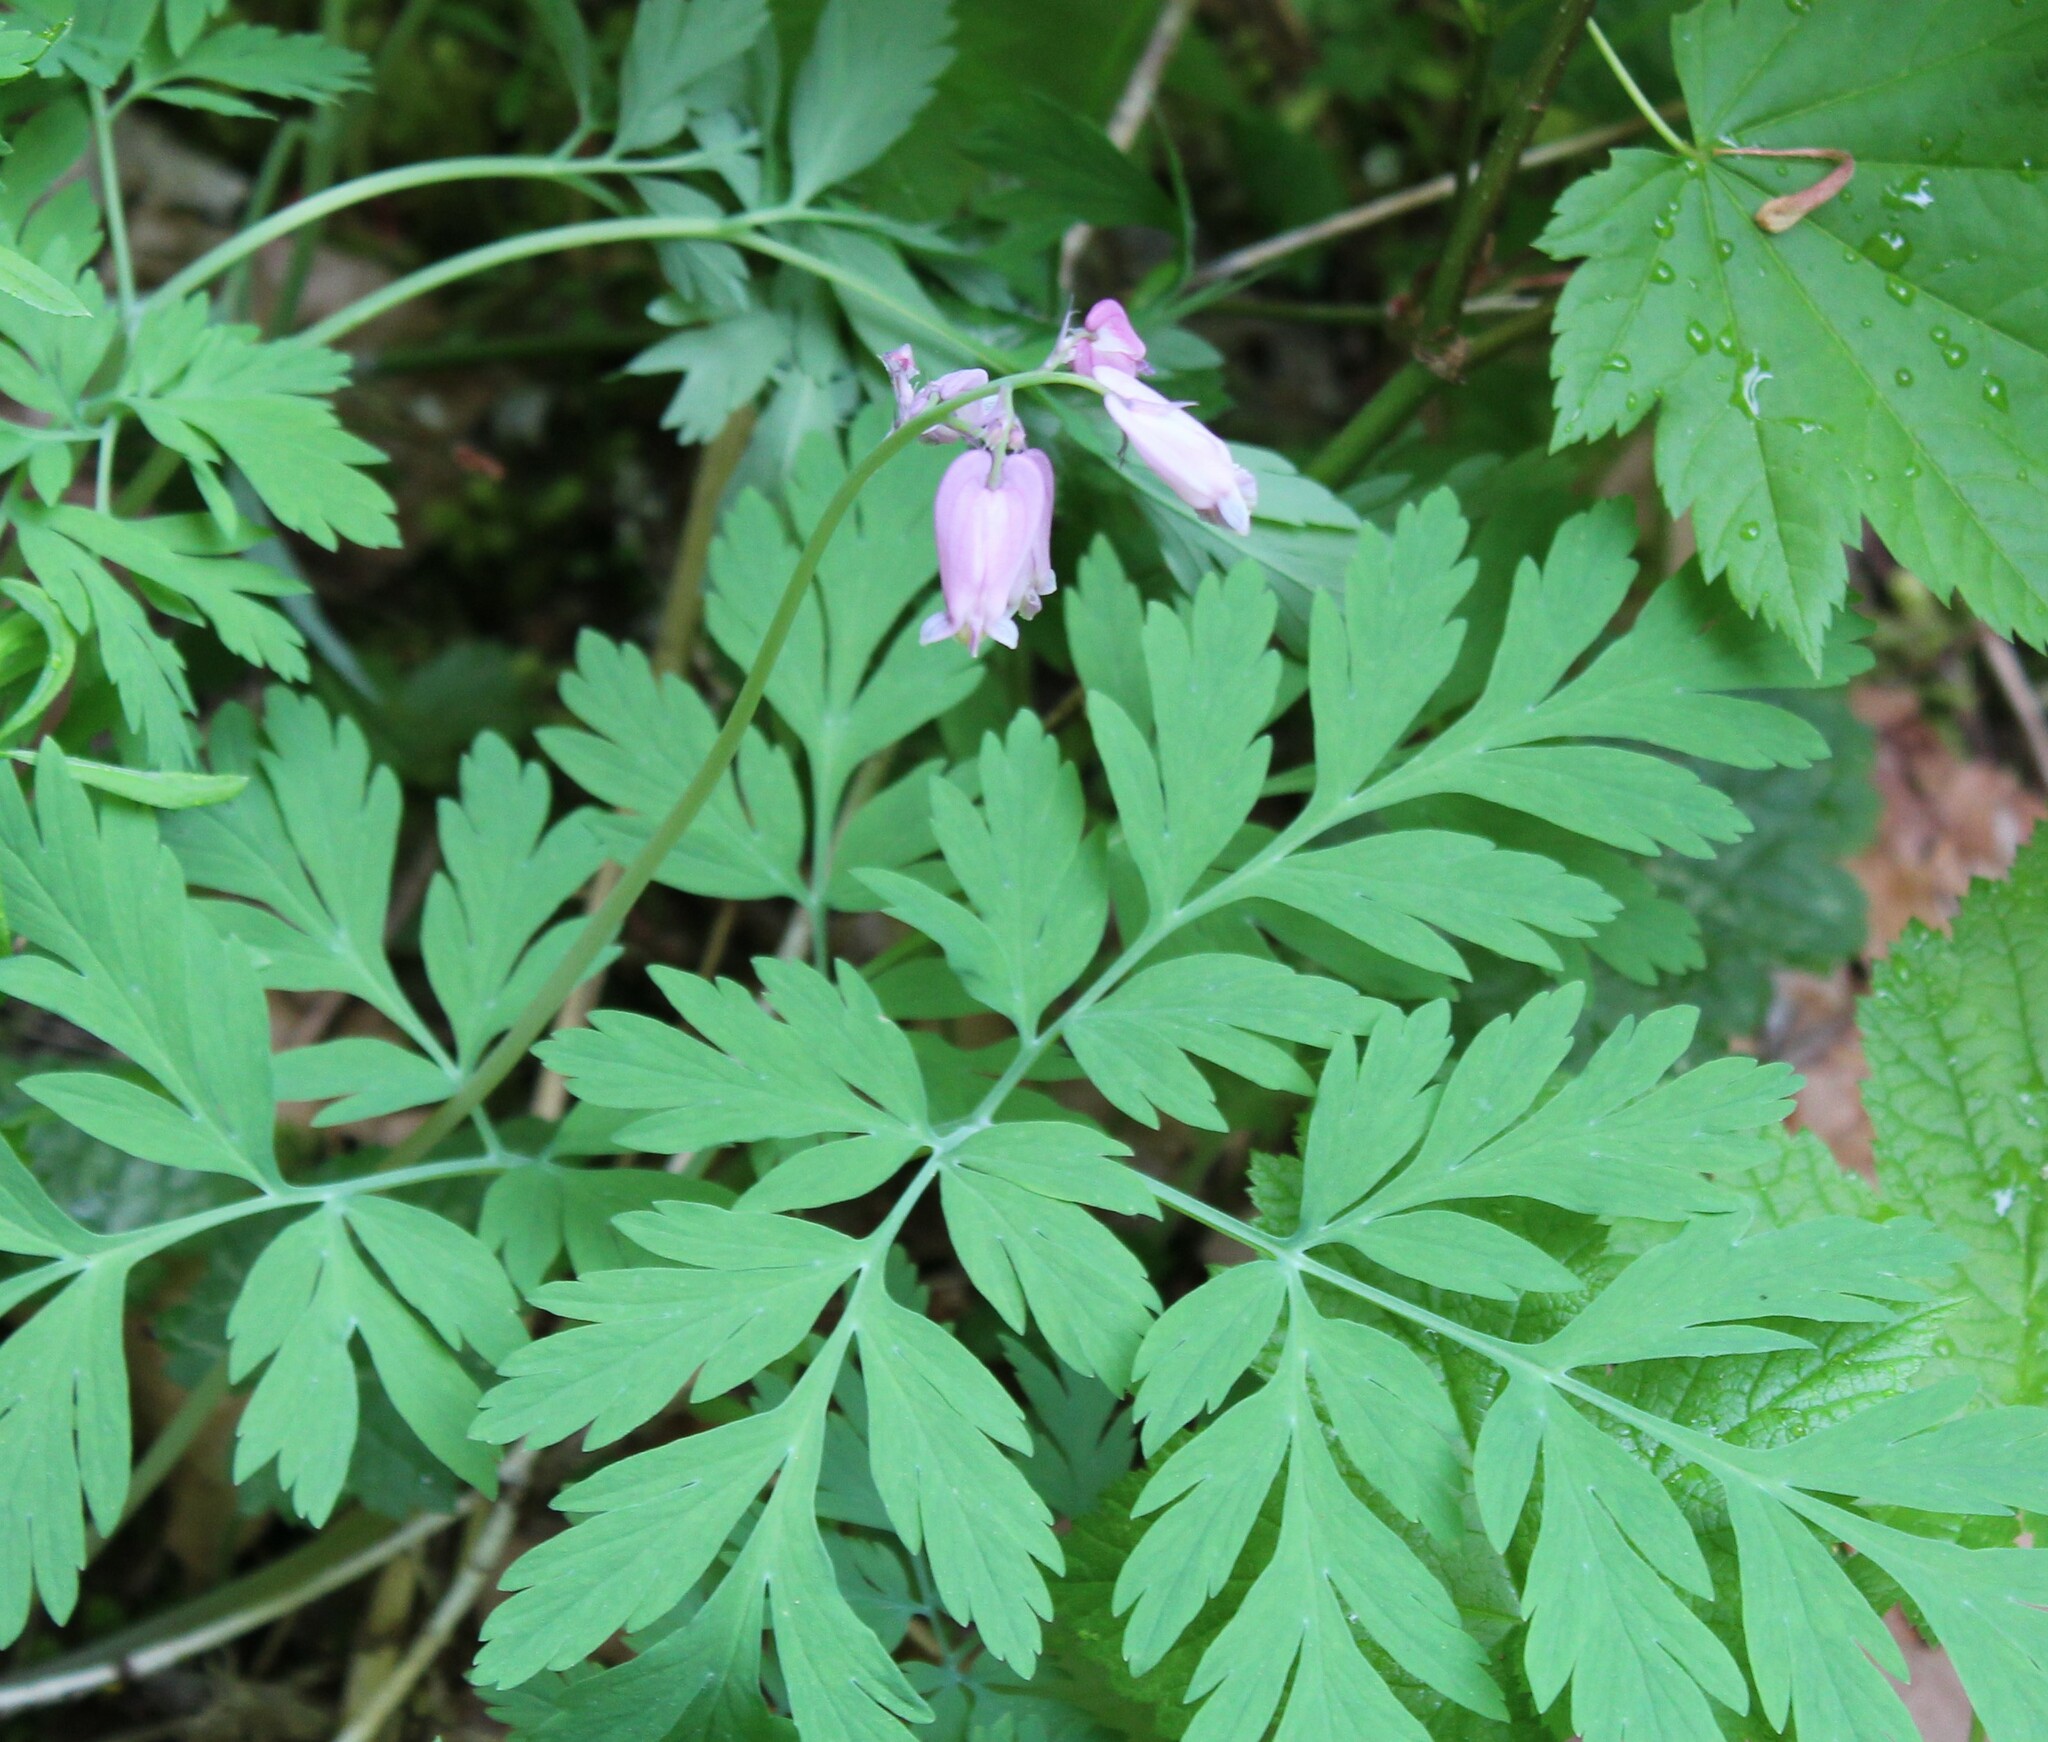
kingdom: Plantae
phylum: Tracheophyta
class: Magnoliopsida
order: Ranunculales
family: Papaveraceae
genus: Dicentra
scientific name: Dicentra formosa
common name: Bleeding-heart
